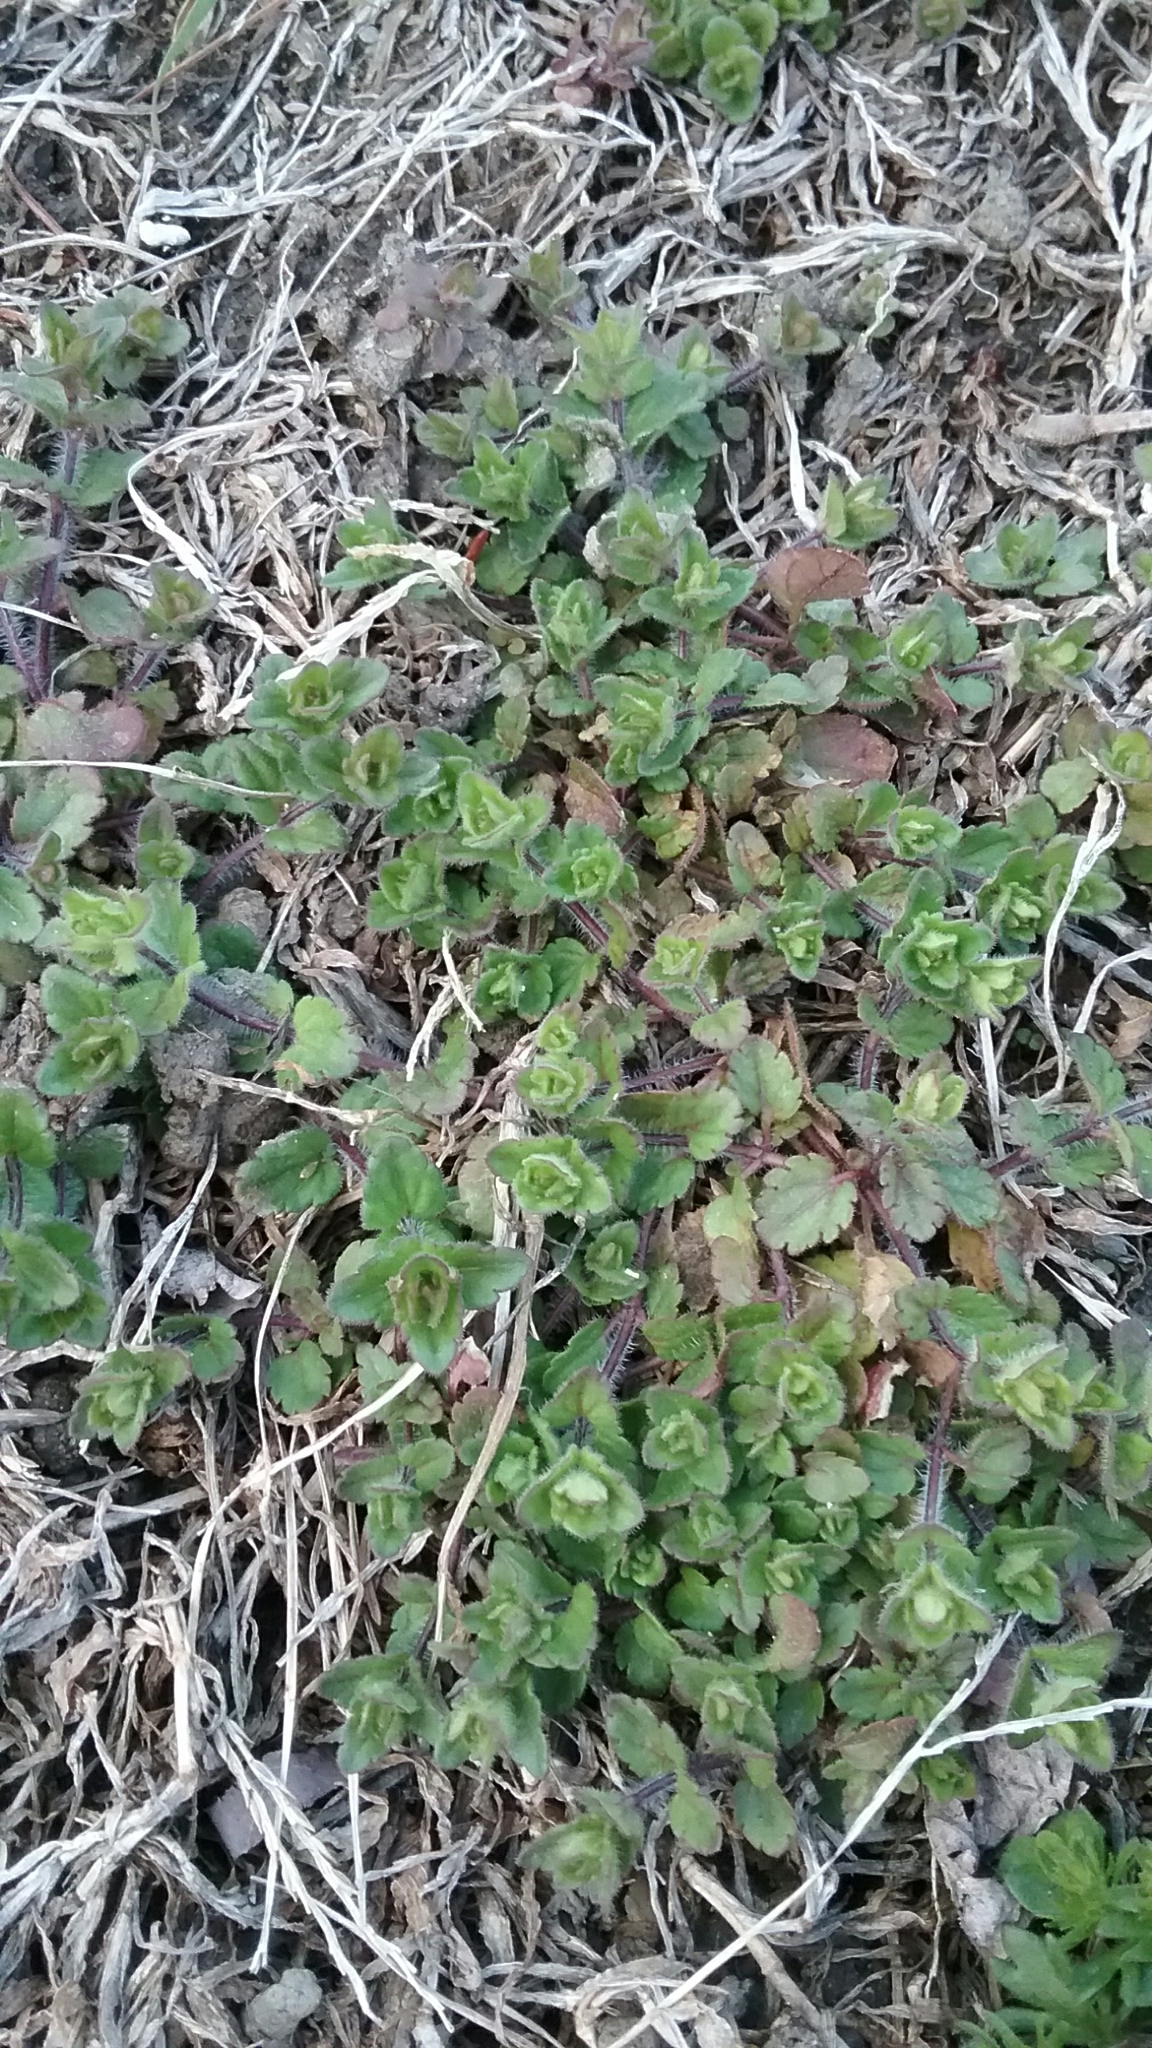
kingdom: Plantae
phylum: Tracheophyta
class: Magnoliopsida
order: Lamiales
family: Plantaginaceae
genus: Veronica
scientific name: Veronica arvensis
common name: Corn speedwell
